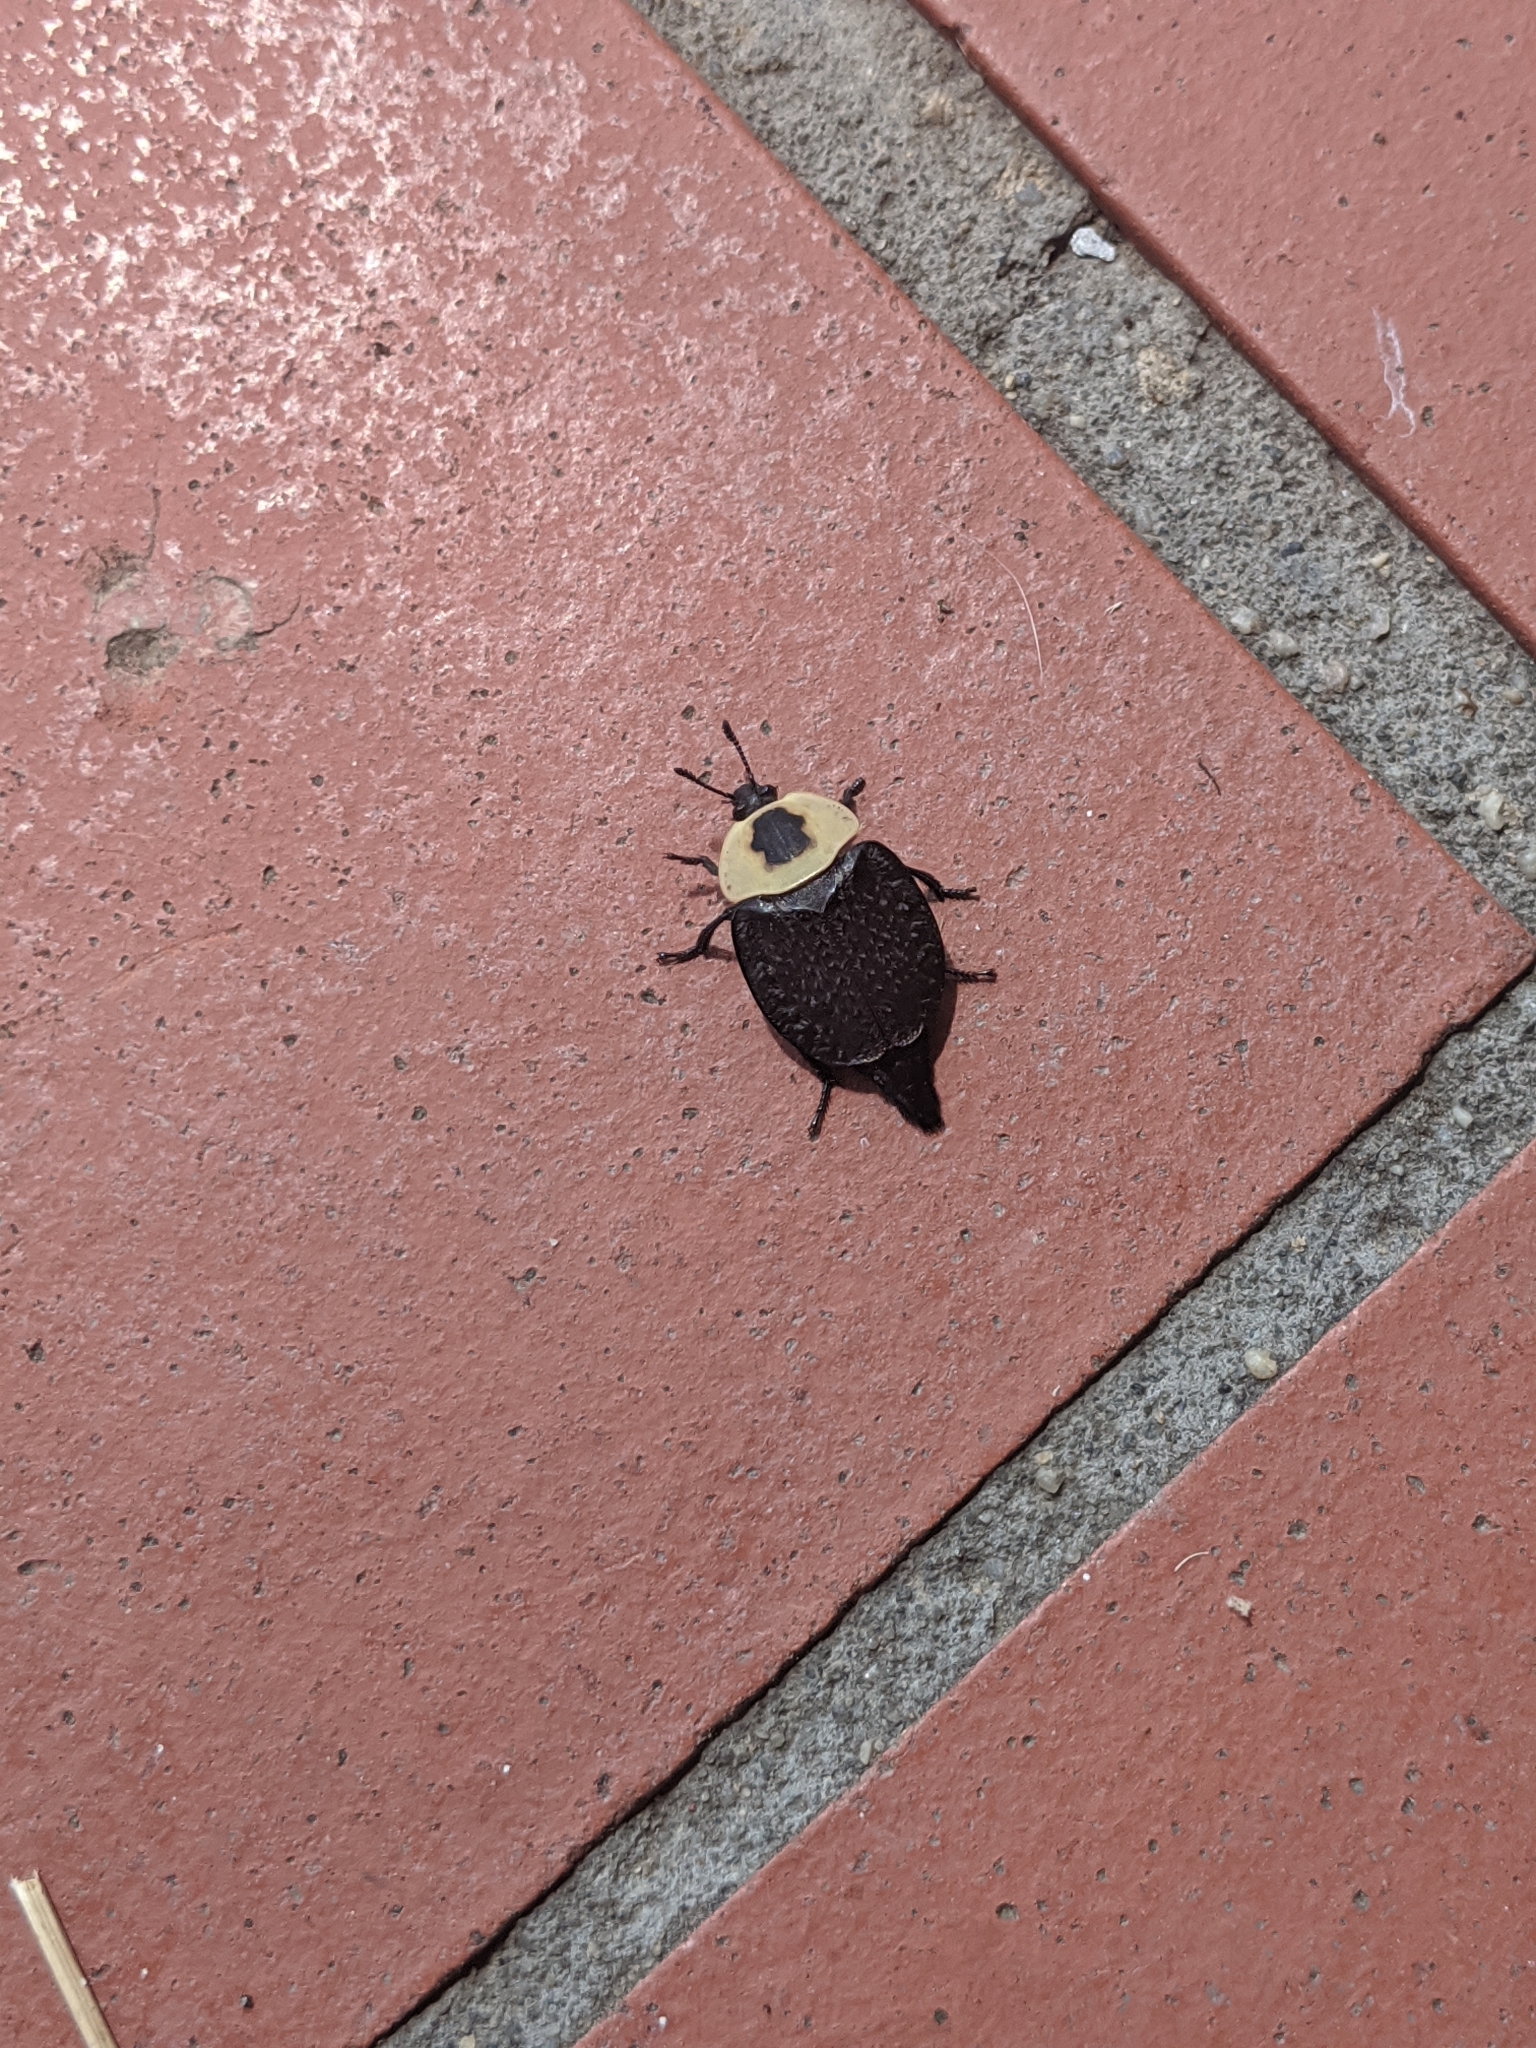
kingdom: Animalia
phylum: Arthropoda
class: Insecta
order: Coleoptera
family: Staphylinidae
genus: Necrophila
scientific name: Necrophila americana
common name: American carrion beetle
